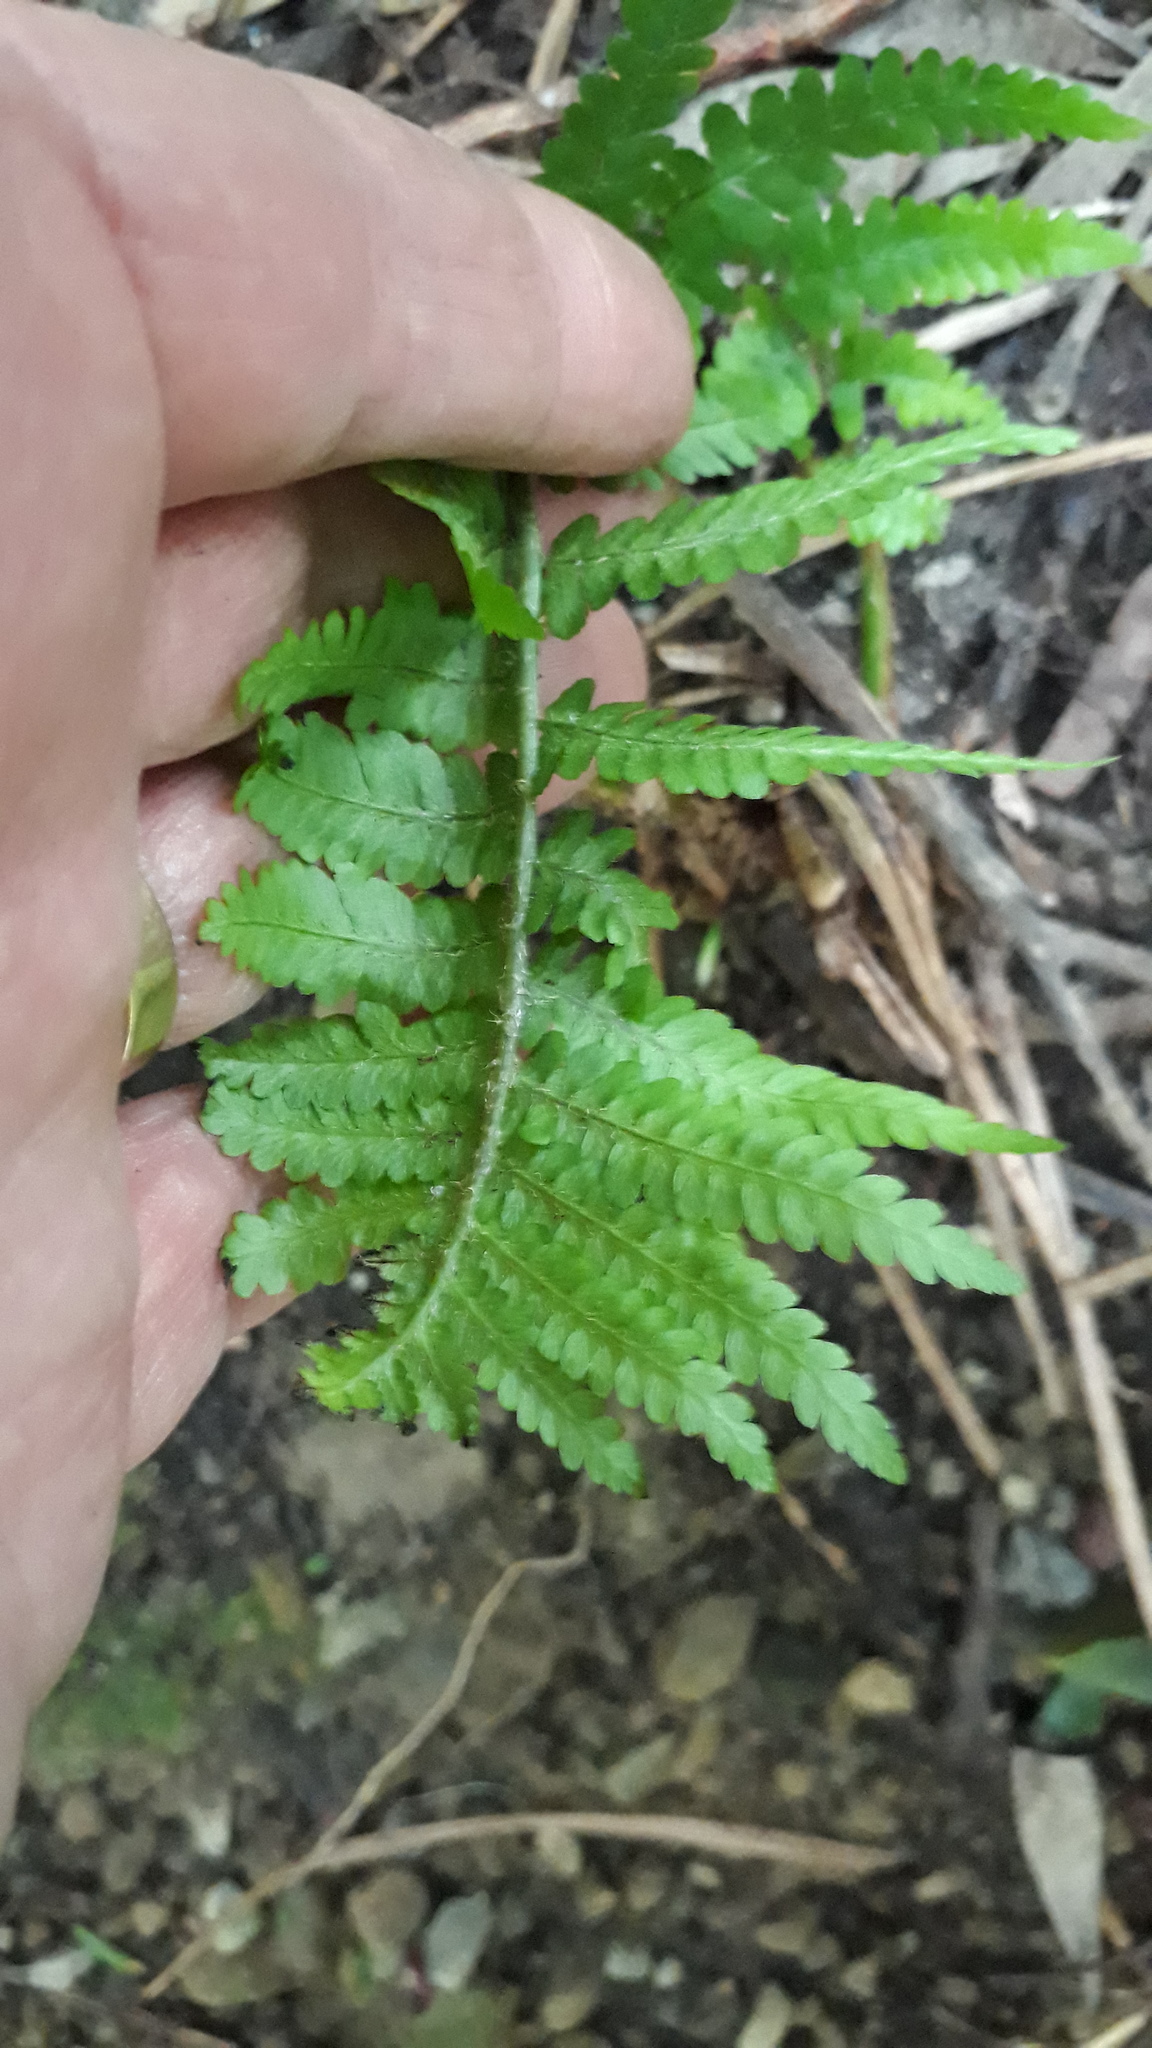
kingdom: Plantae
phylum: Tracheophyta
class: Polypodiopsida
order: Polypodiales
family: Dryopteridaceae
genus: Dryopteris
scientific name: Dryopteris filix-mas
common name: Male fern
